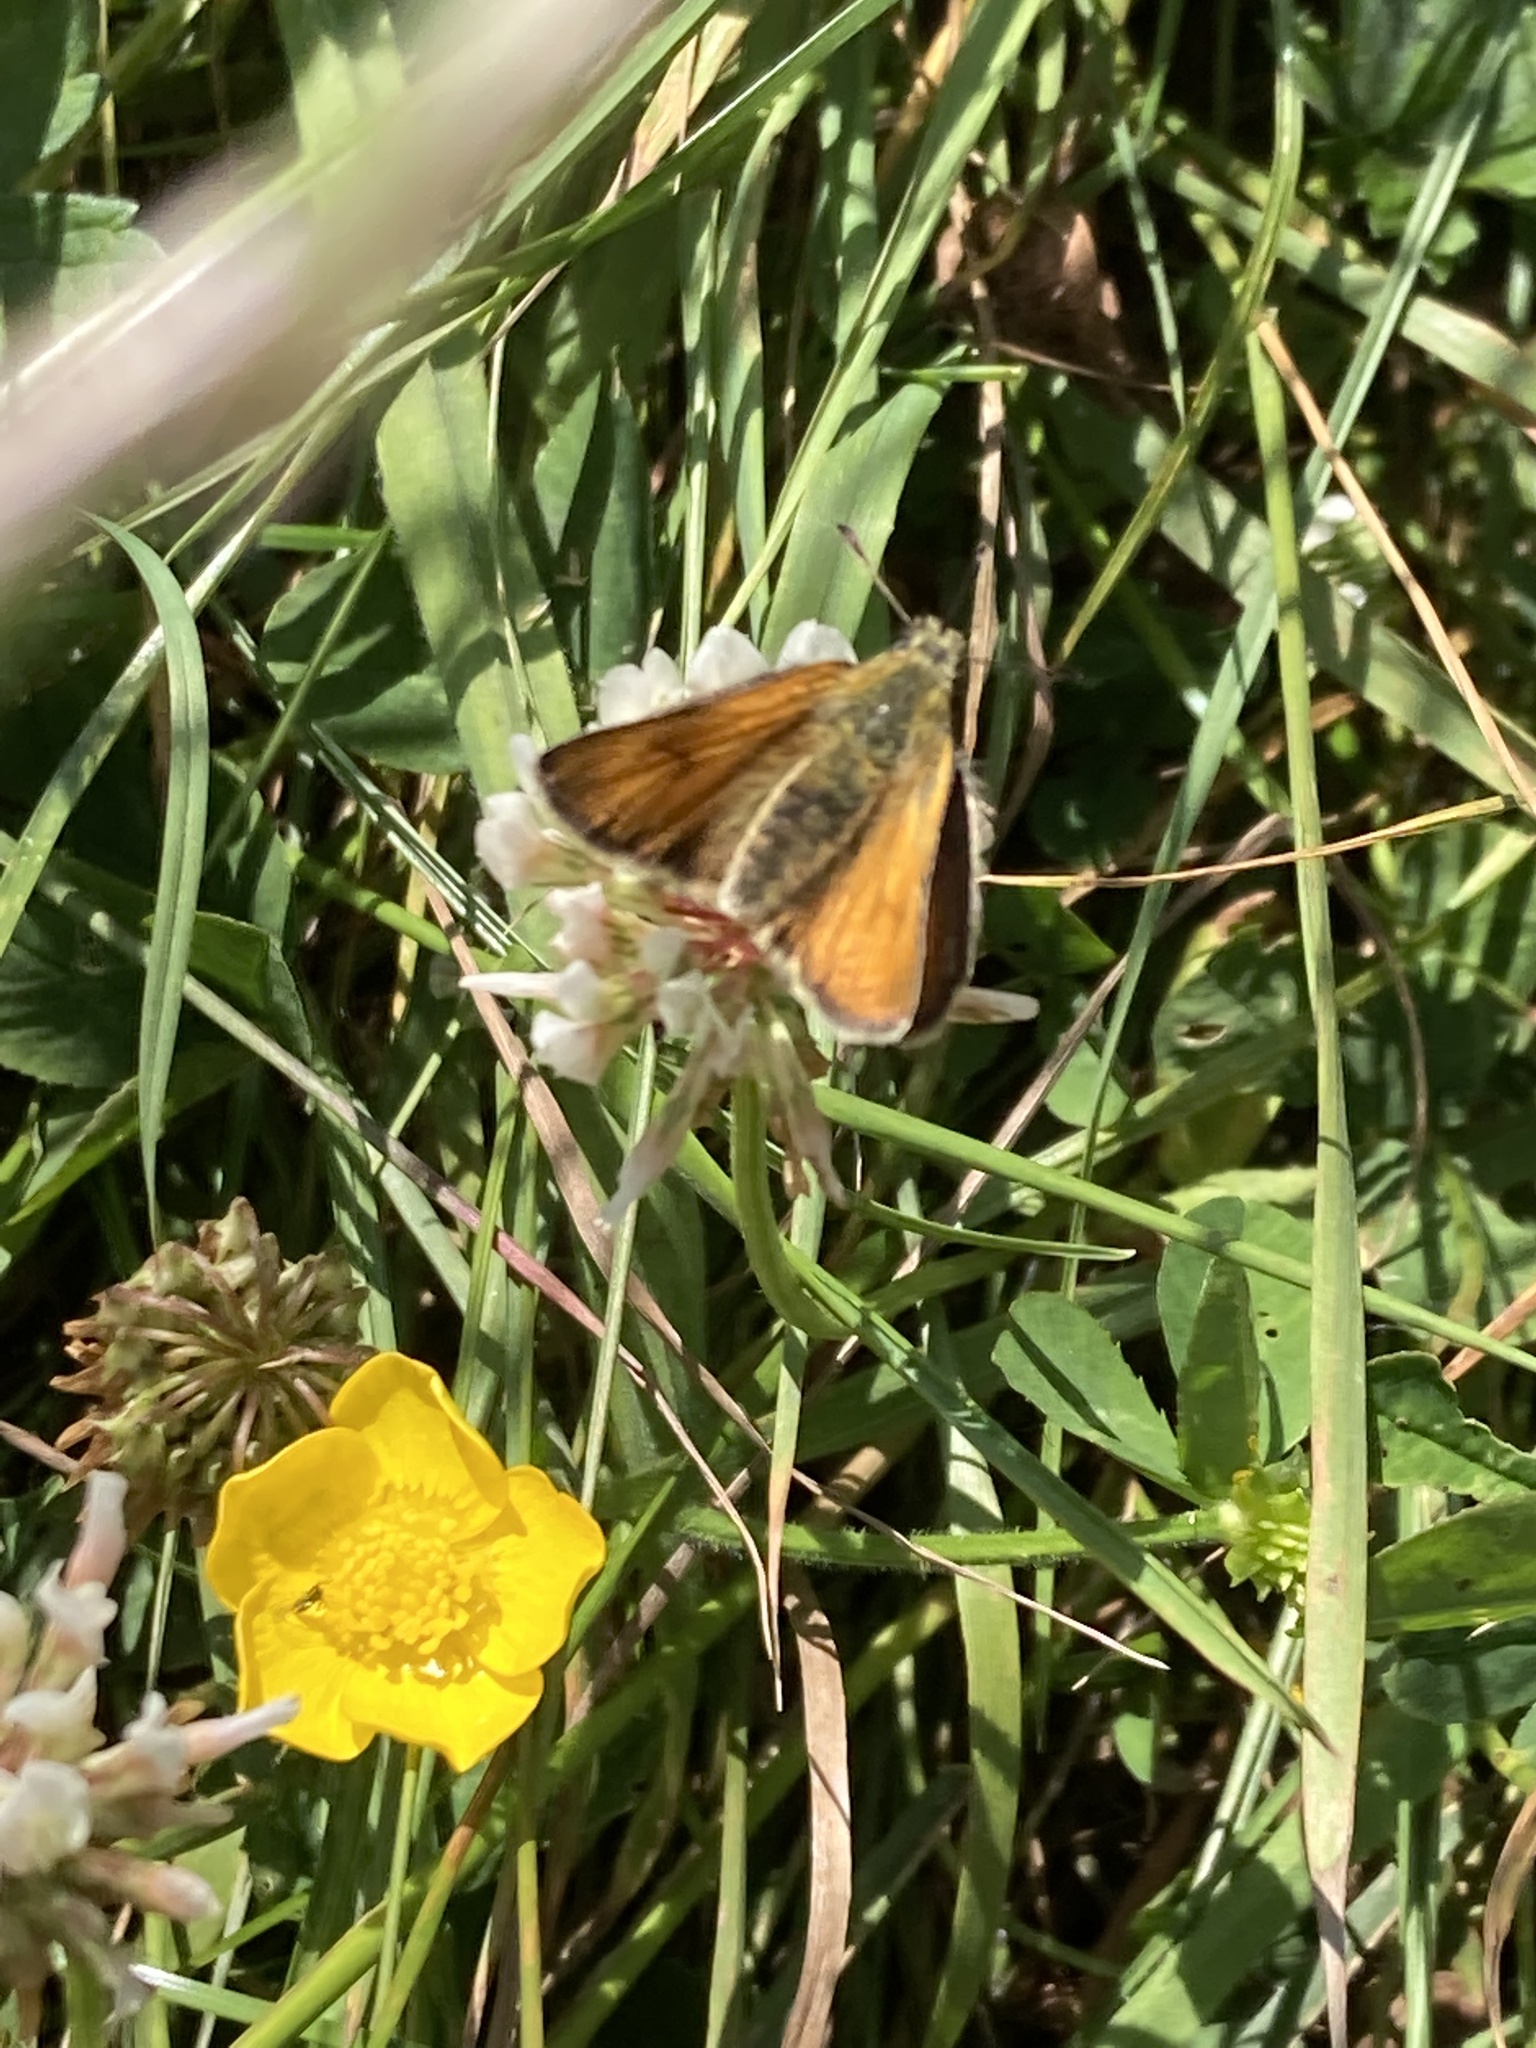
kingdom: Animalia
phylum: Arthropoda
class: Insecta
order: Lepidoptera
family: Hesperiidae
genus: Thymelicus
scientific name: Thymelicus sylvestris
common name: Small skipper
